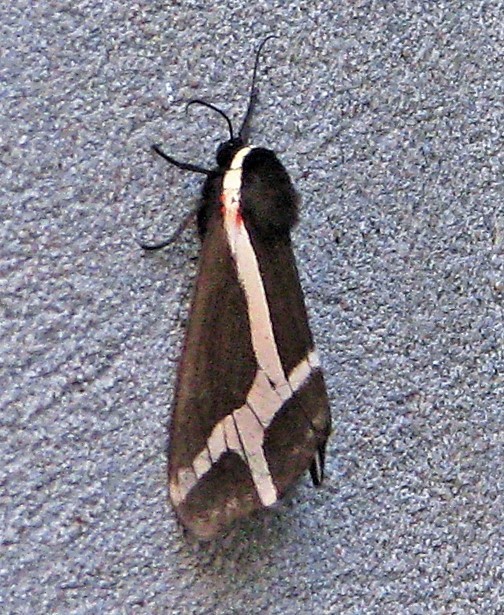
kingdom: Animalia
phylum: Arthropoda
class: Insecta
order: Lepidoptera
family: Erebidae
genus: Dysschema
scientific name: Dysschema sacrifica
